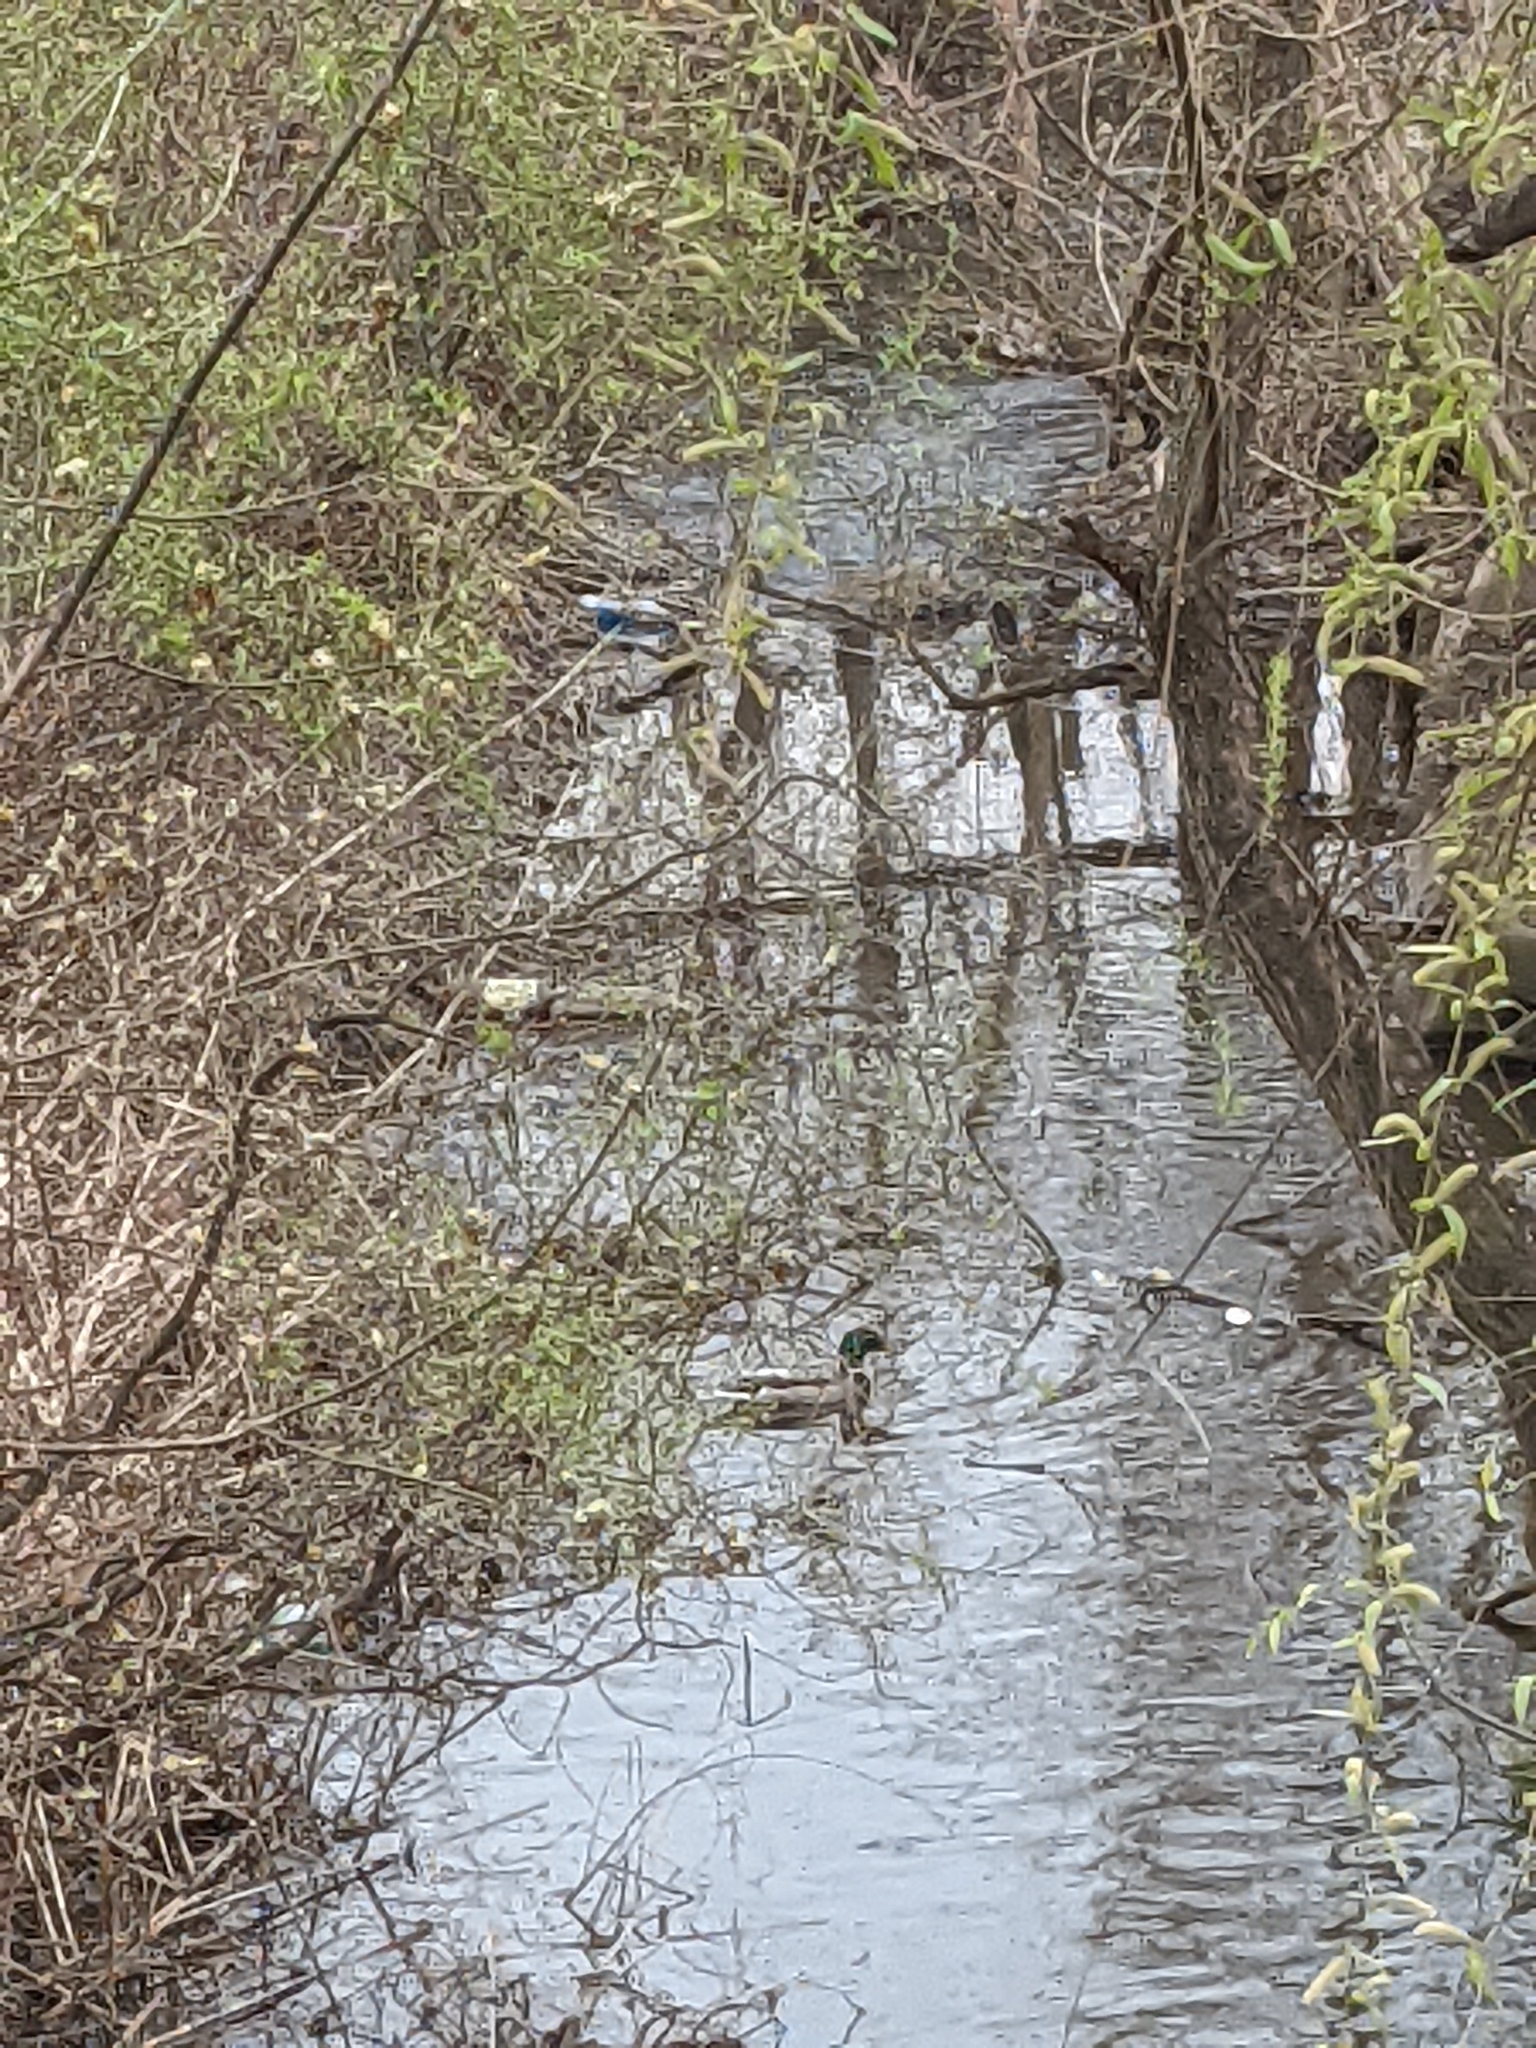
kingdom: Animalia
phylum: Chordata
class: Aves
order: Anseriformes
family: Anatidae
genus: Anas
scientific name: Anas platyrhynchos
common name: Mallard
